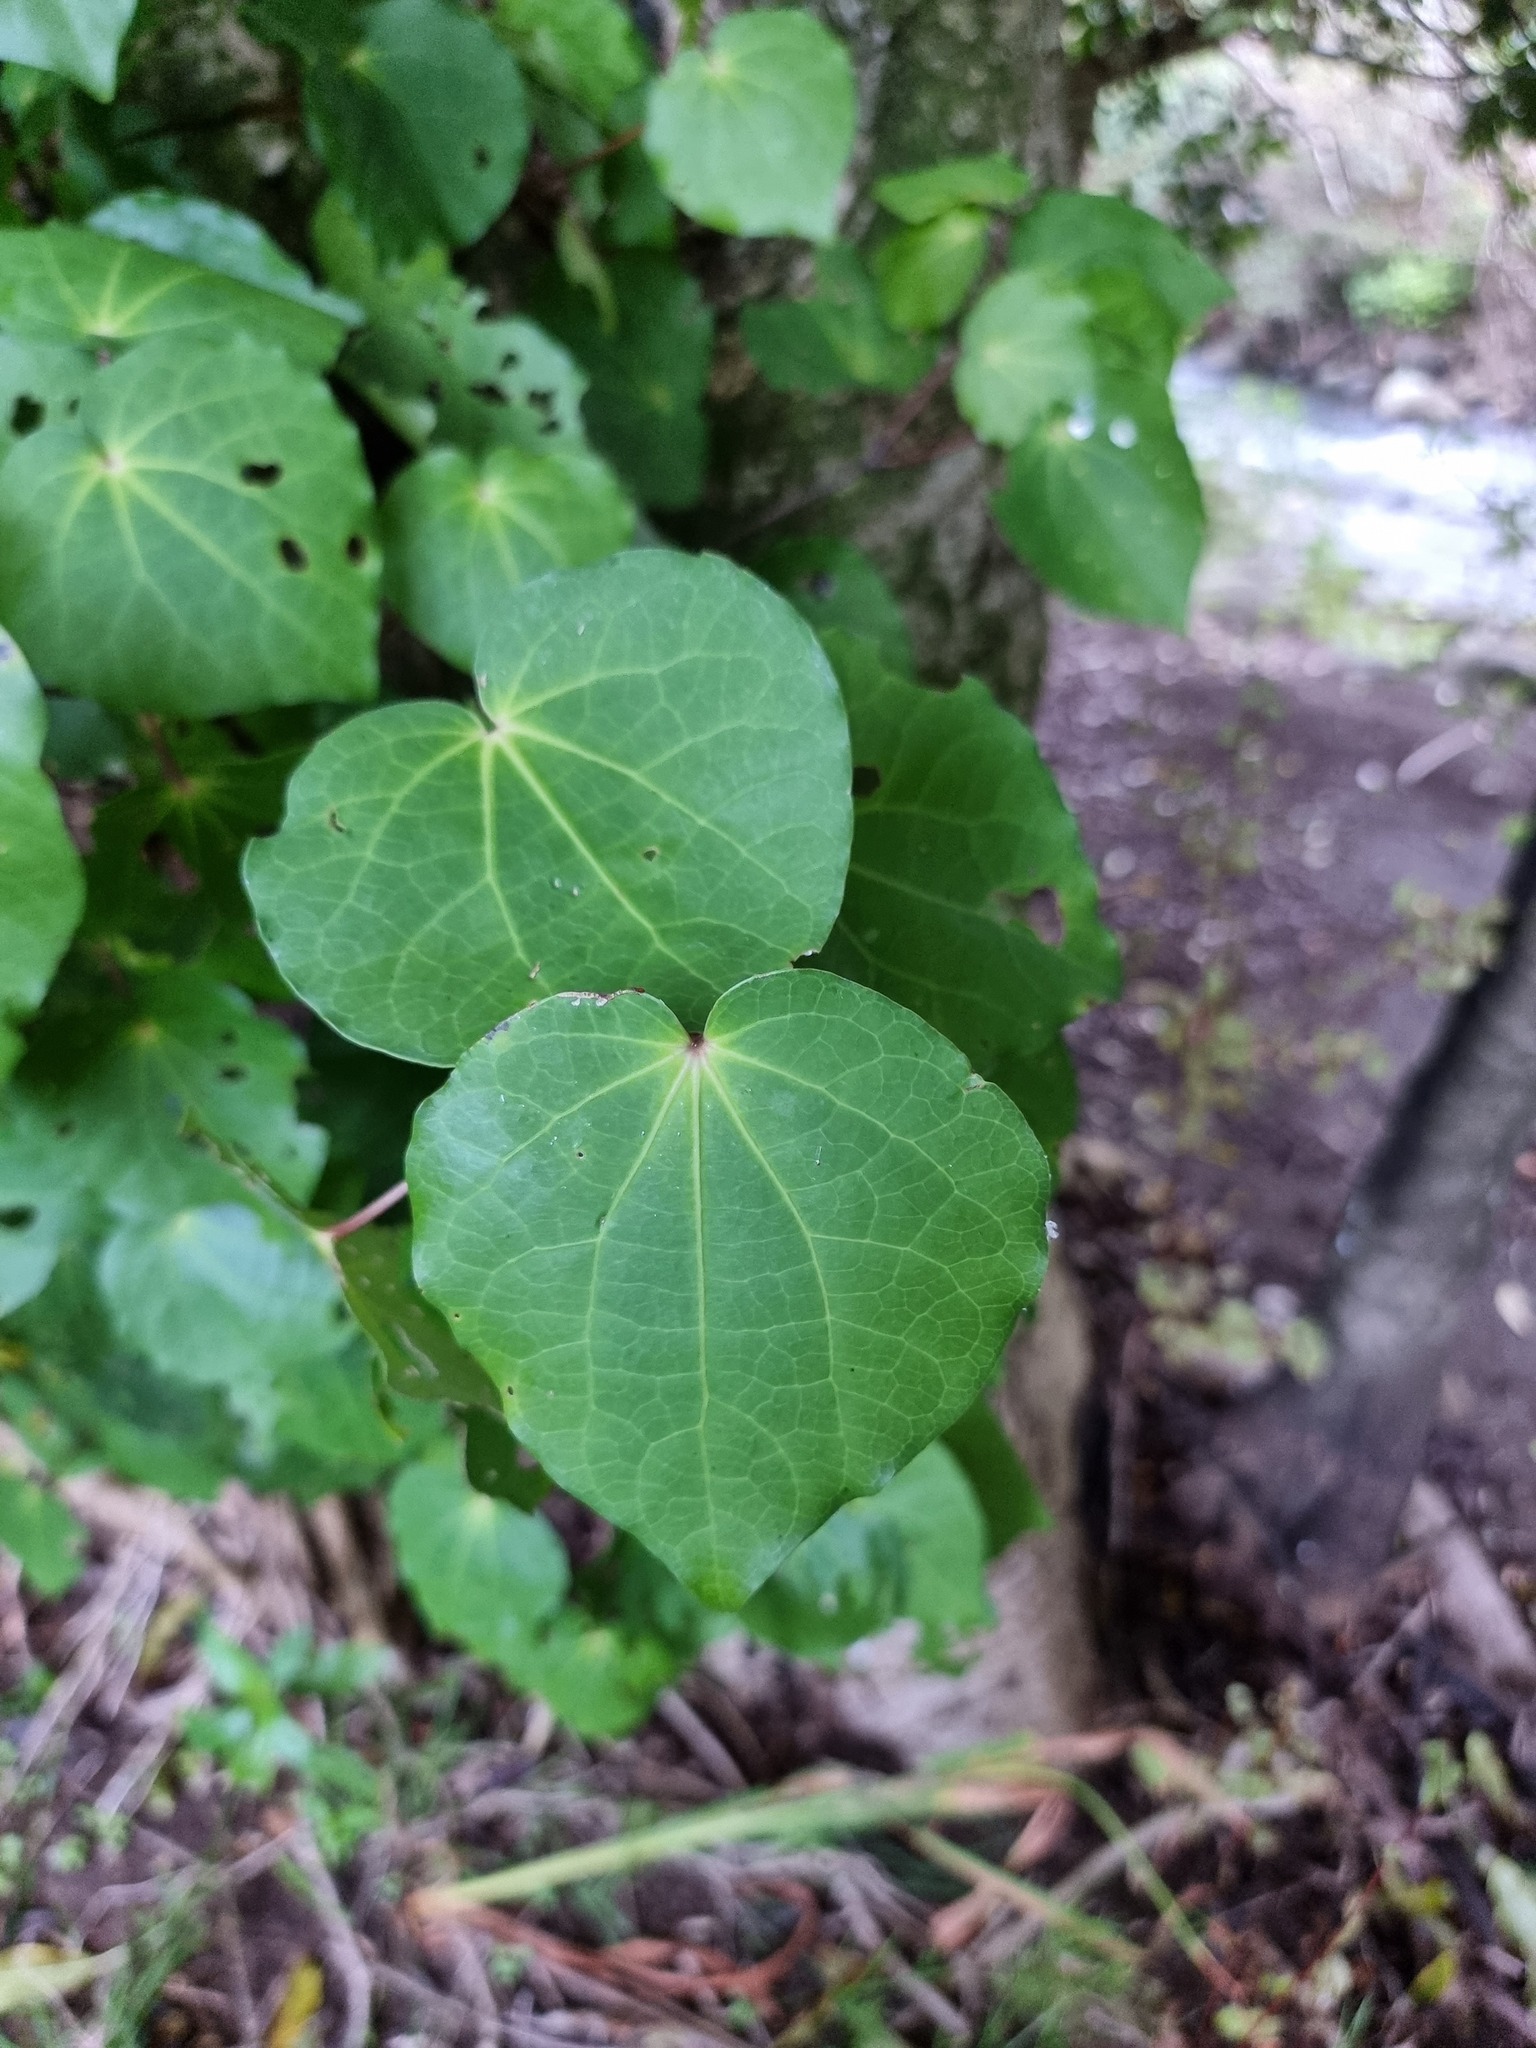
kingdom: Plantae
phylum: Tracheophyta
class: Magnoliopsida
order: Piperales
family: Piperaceae
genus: Macropiper
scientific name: Macropiper excelsum
